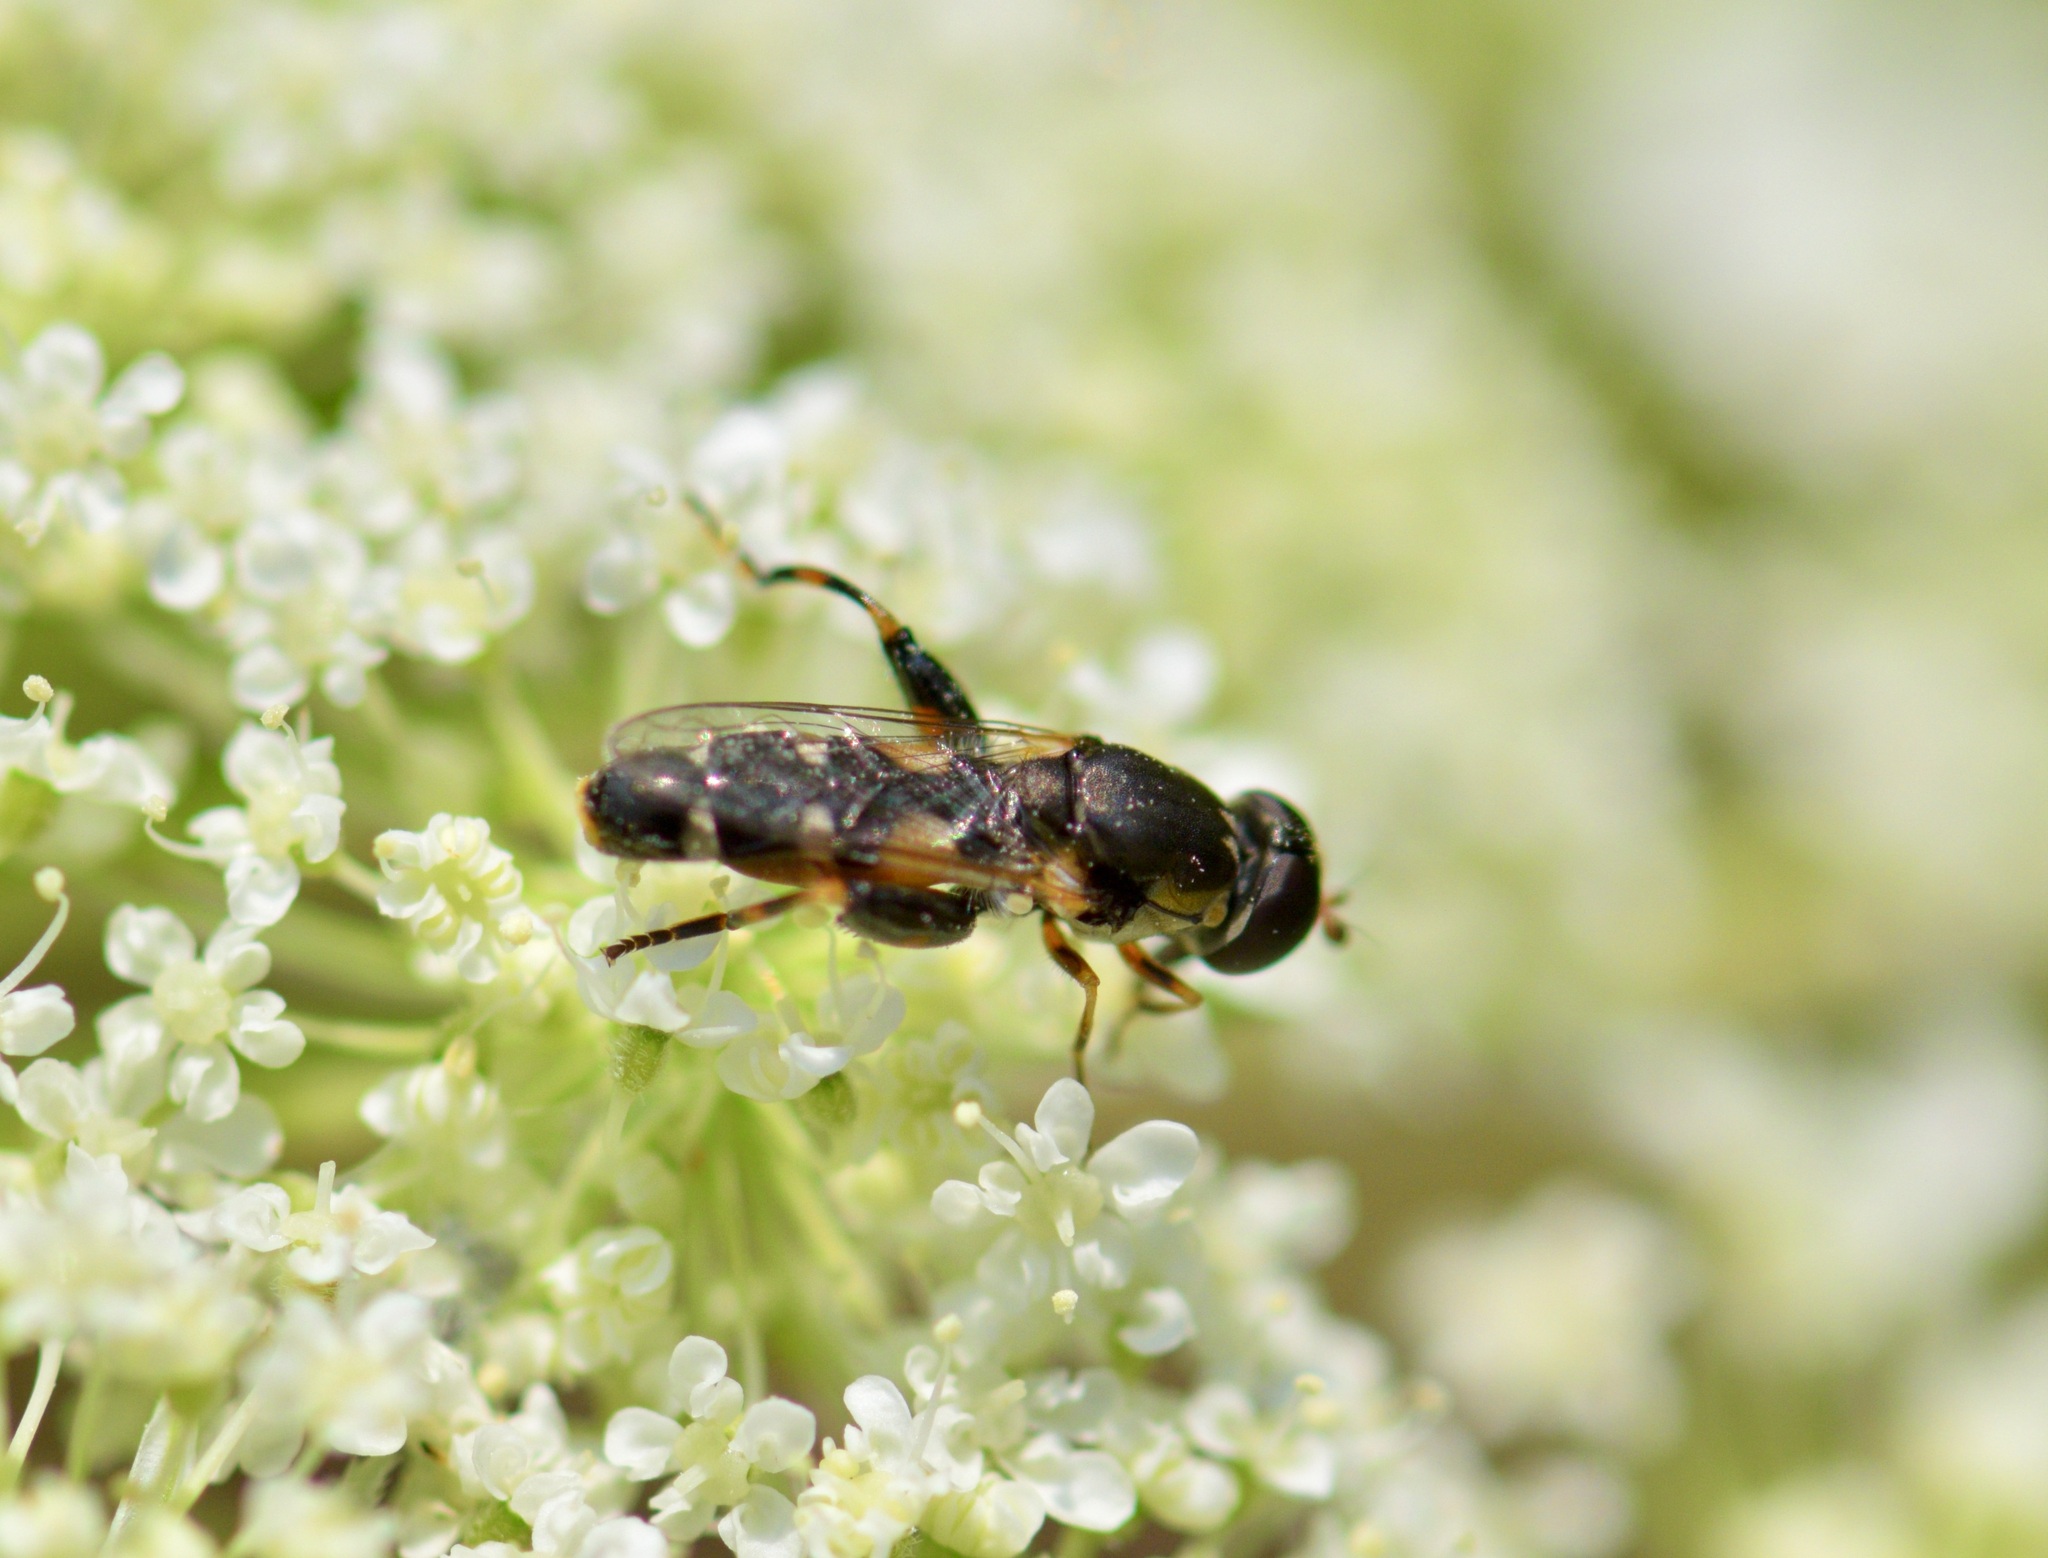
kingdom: Animalia
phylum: Arthropoda
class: Insecta
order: Diptera
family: Syrphidae
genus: Syritta
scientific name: Syritta pipiens
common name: Hover fly
